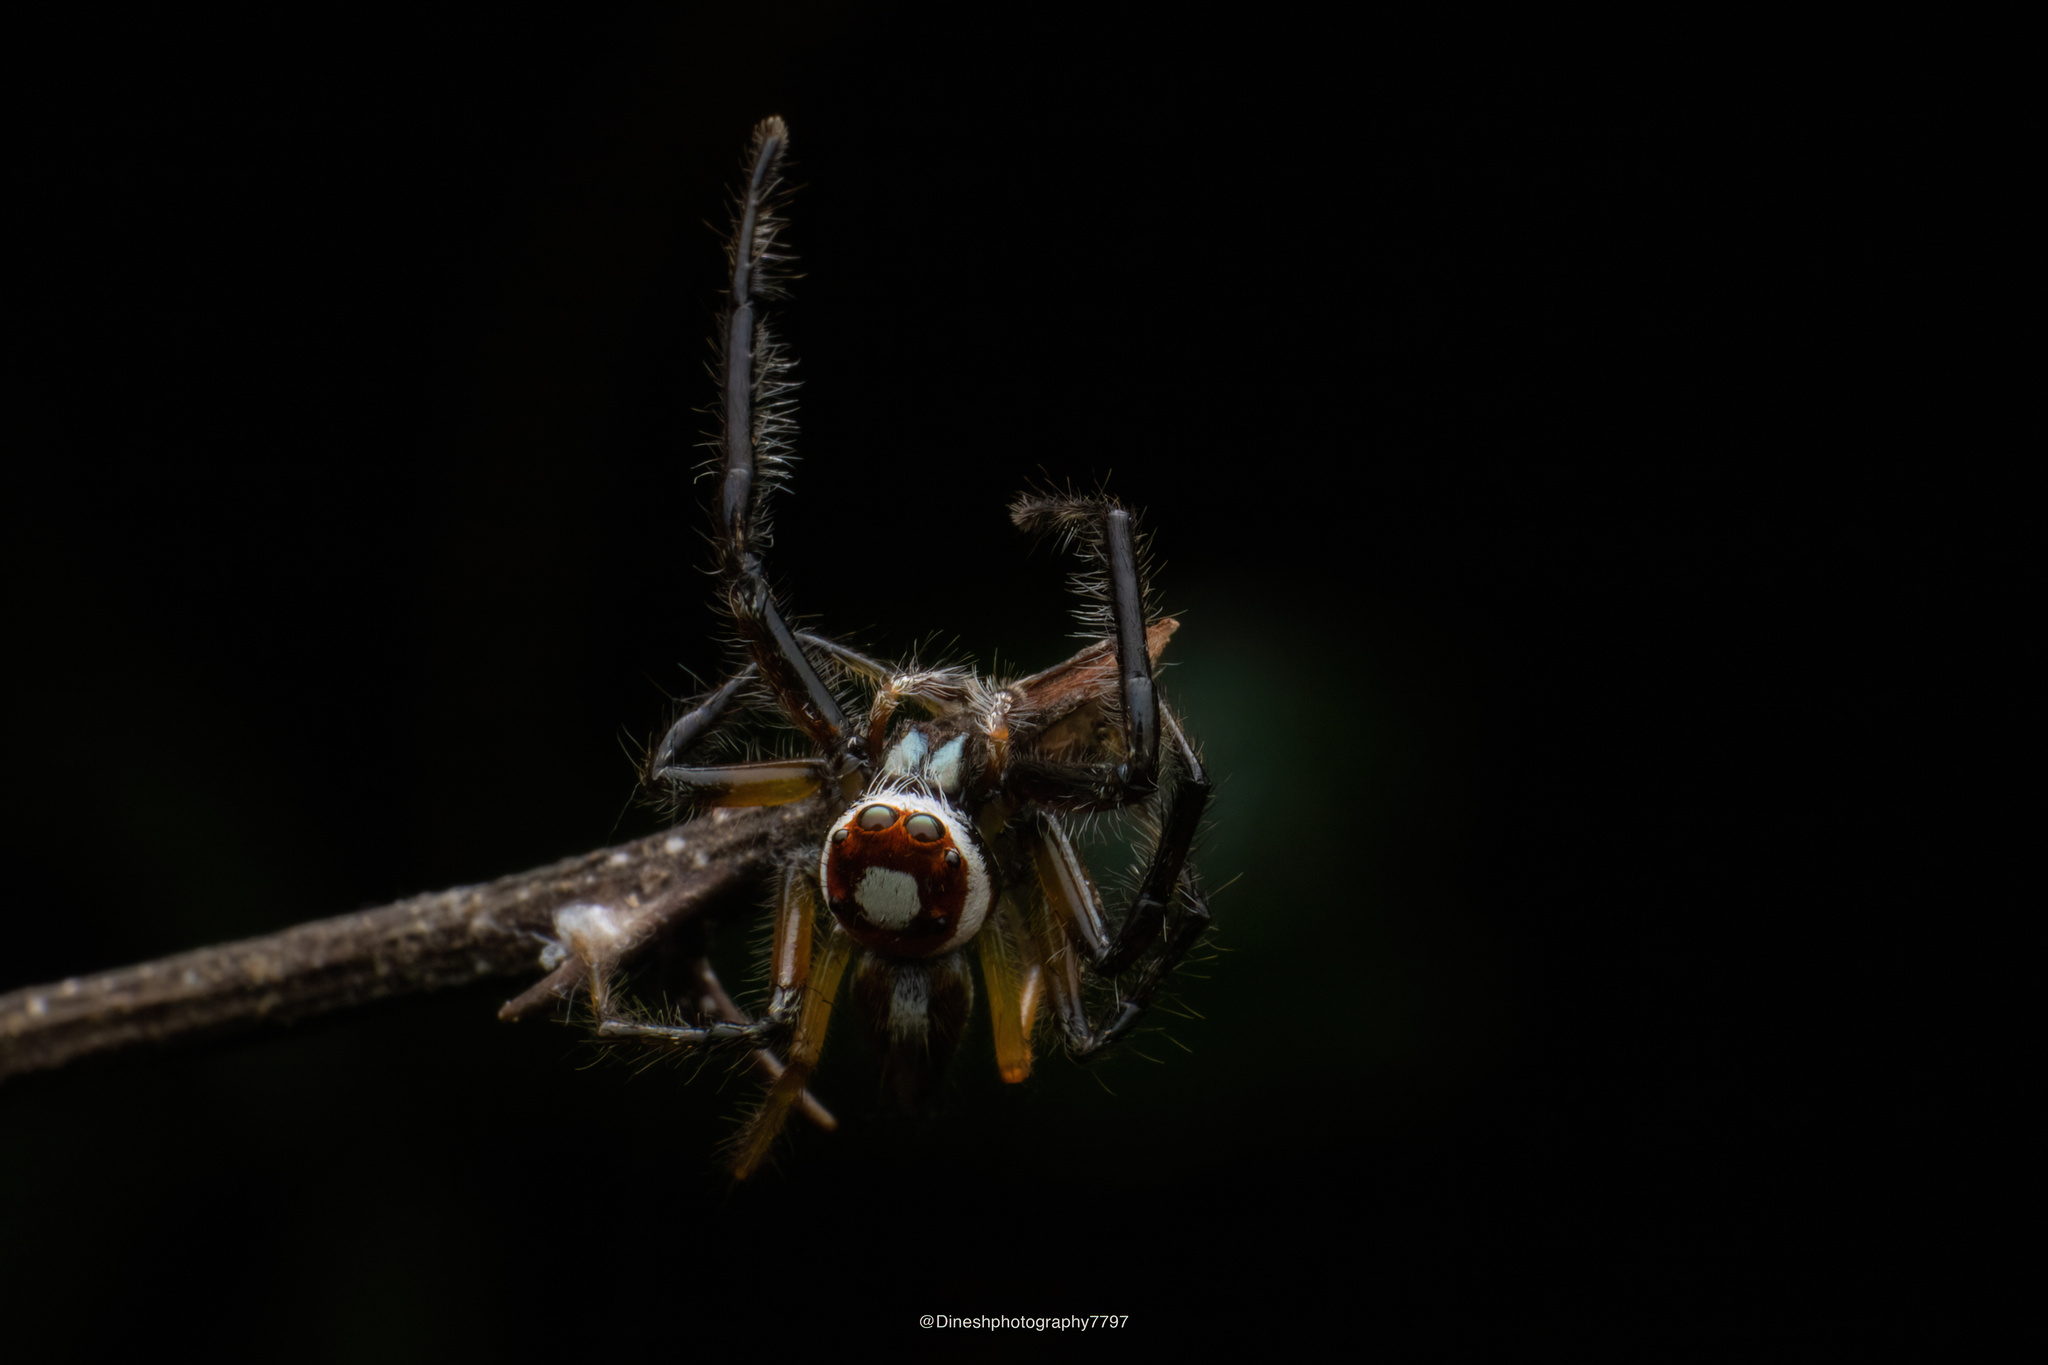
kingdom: Animalia
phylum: Arthropoda
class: Arachnida
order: Araneae
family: Salticidae
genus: Telamonia
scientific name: Telamonia dimidiata
